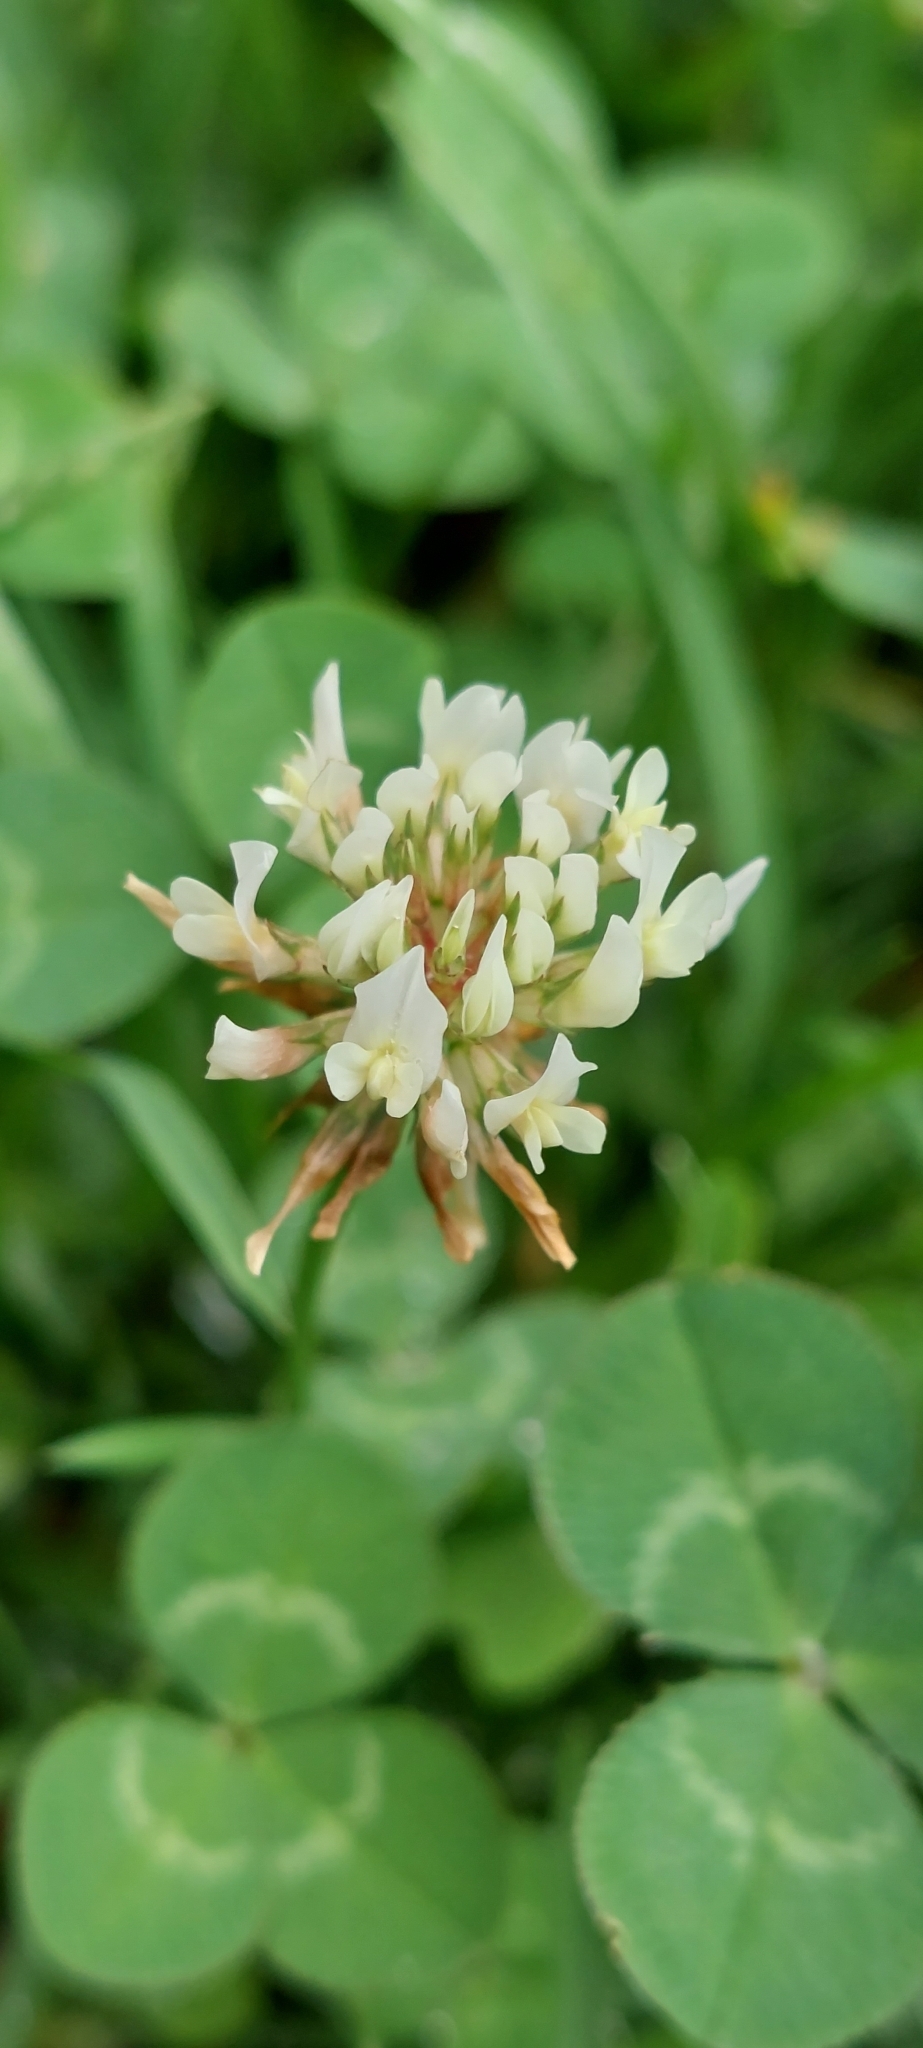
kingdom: Plantae
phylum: Tracheophyta
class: Magnoliopsida
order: Fabales
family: Fabaceae
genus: Trifolium
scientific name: Trifolium repens
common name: White clover
